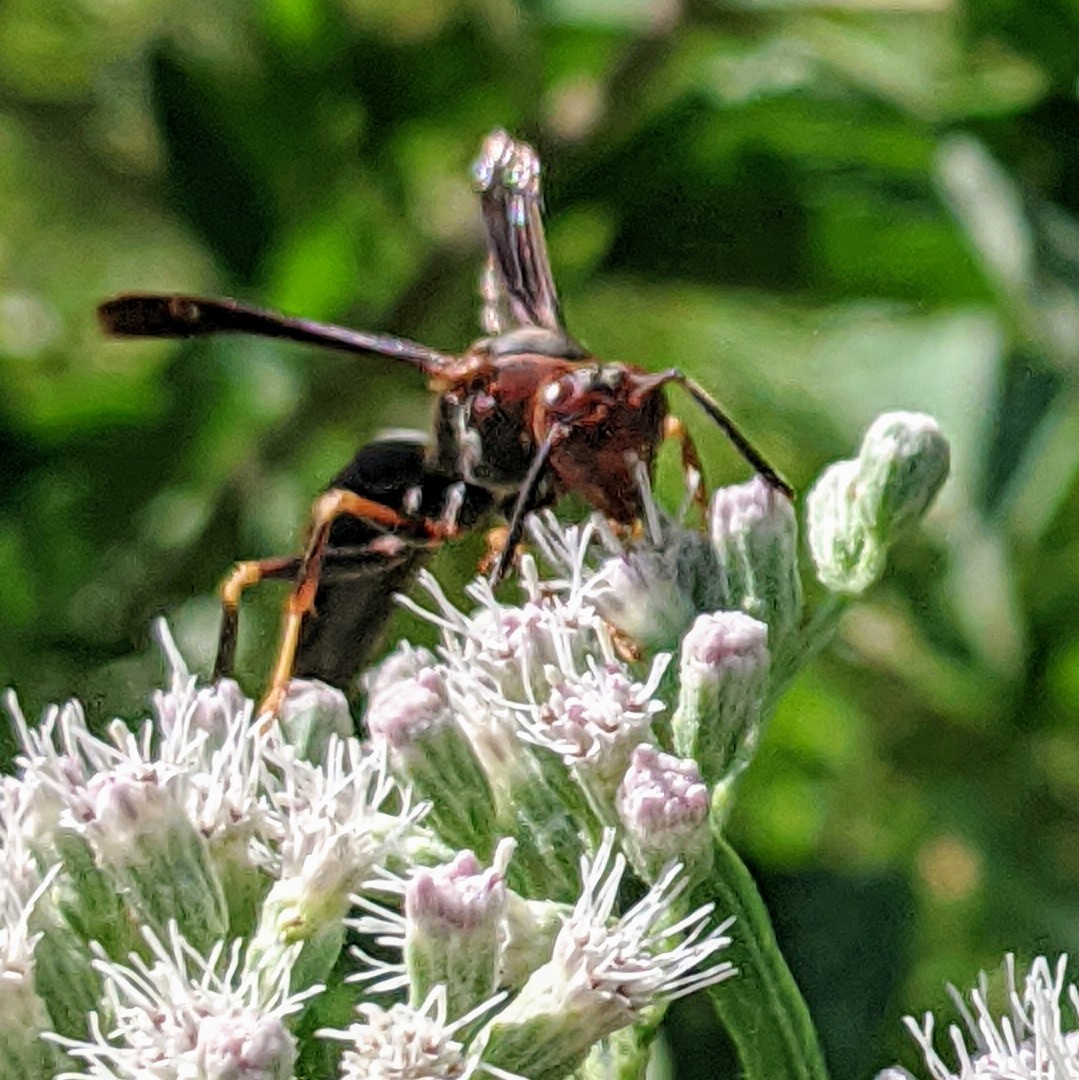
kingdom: Animalia
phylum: Arthropoda
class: Insecta
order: Hymenoptera
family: Eumenidae
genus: Polistes
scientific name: Polistes metricus
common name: Metric paper wasp
